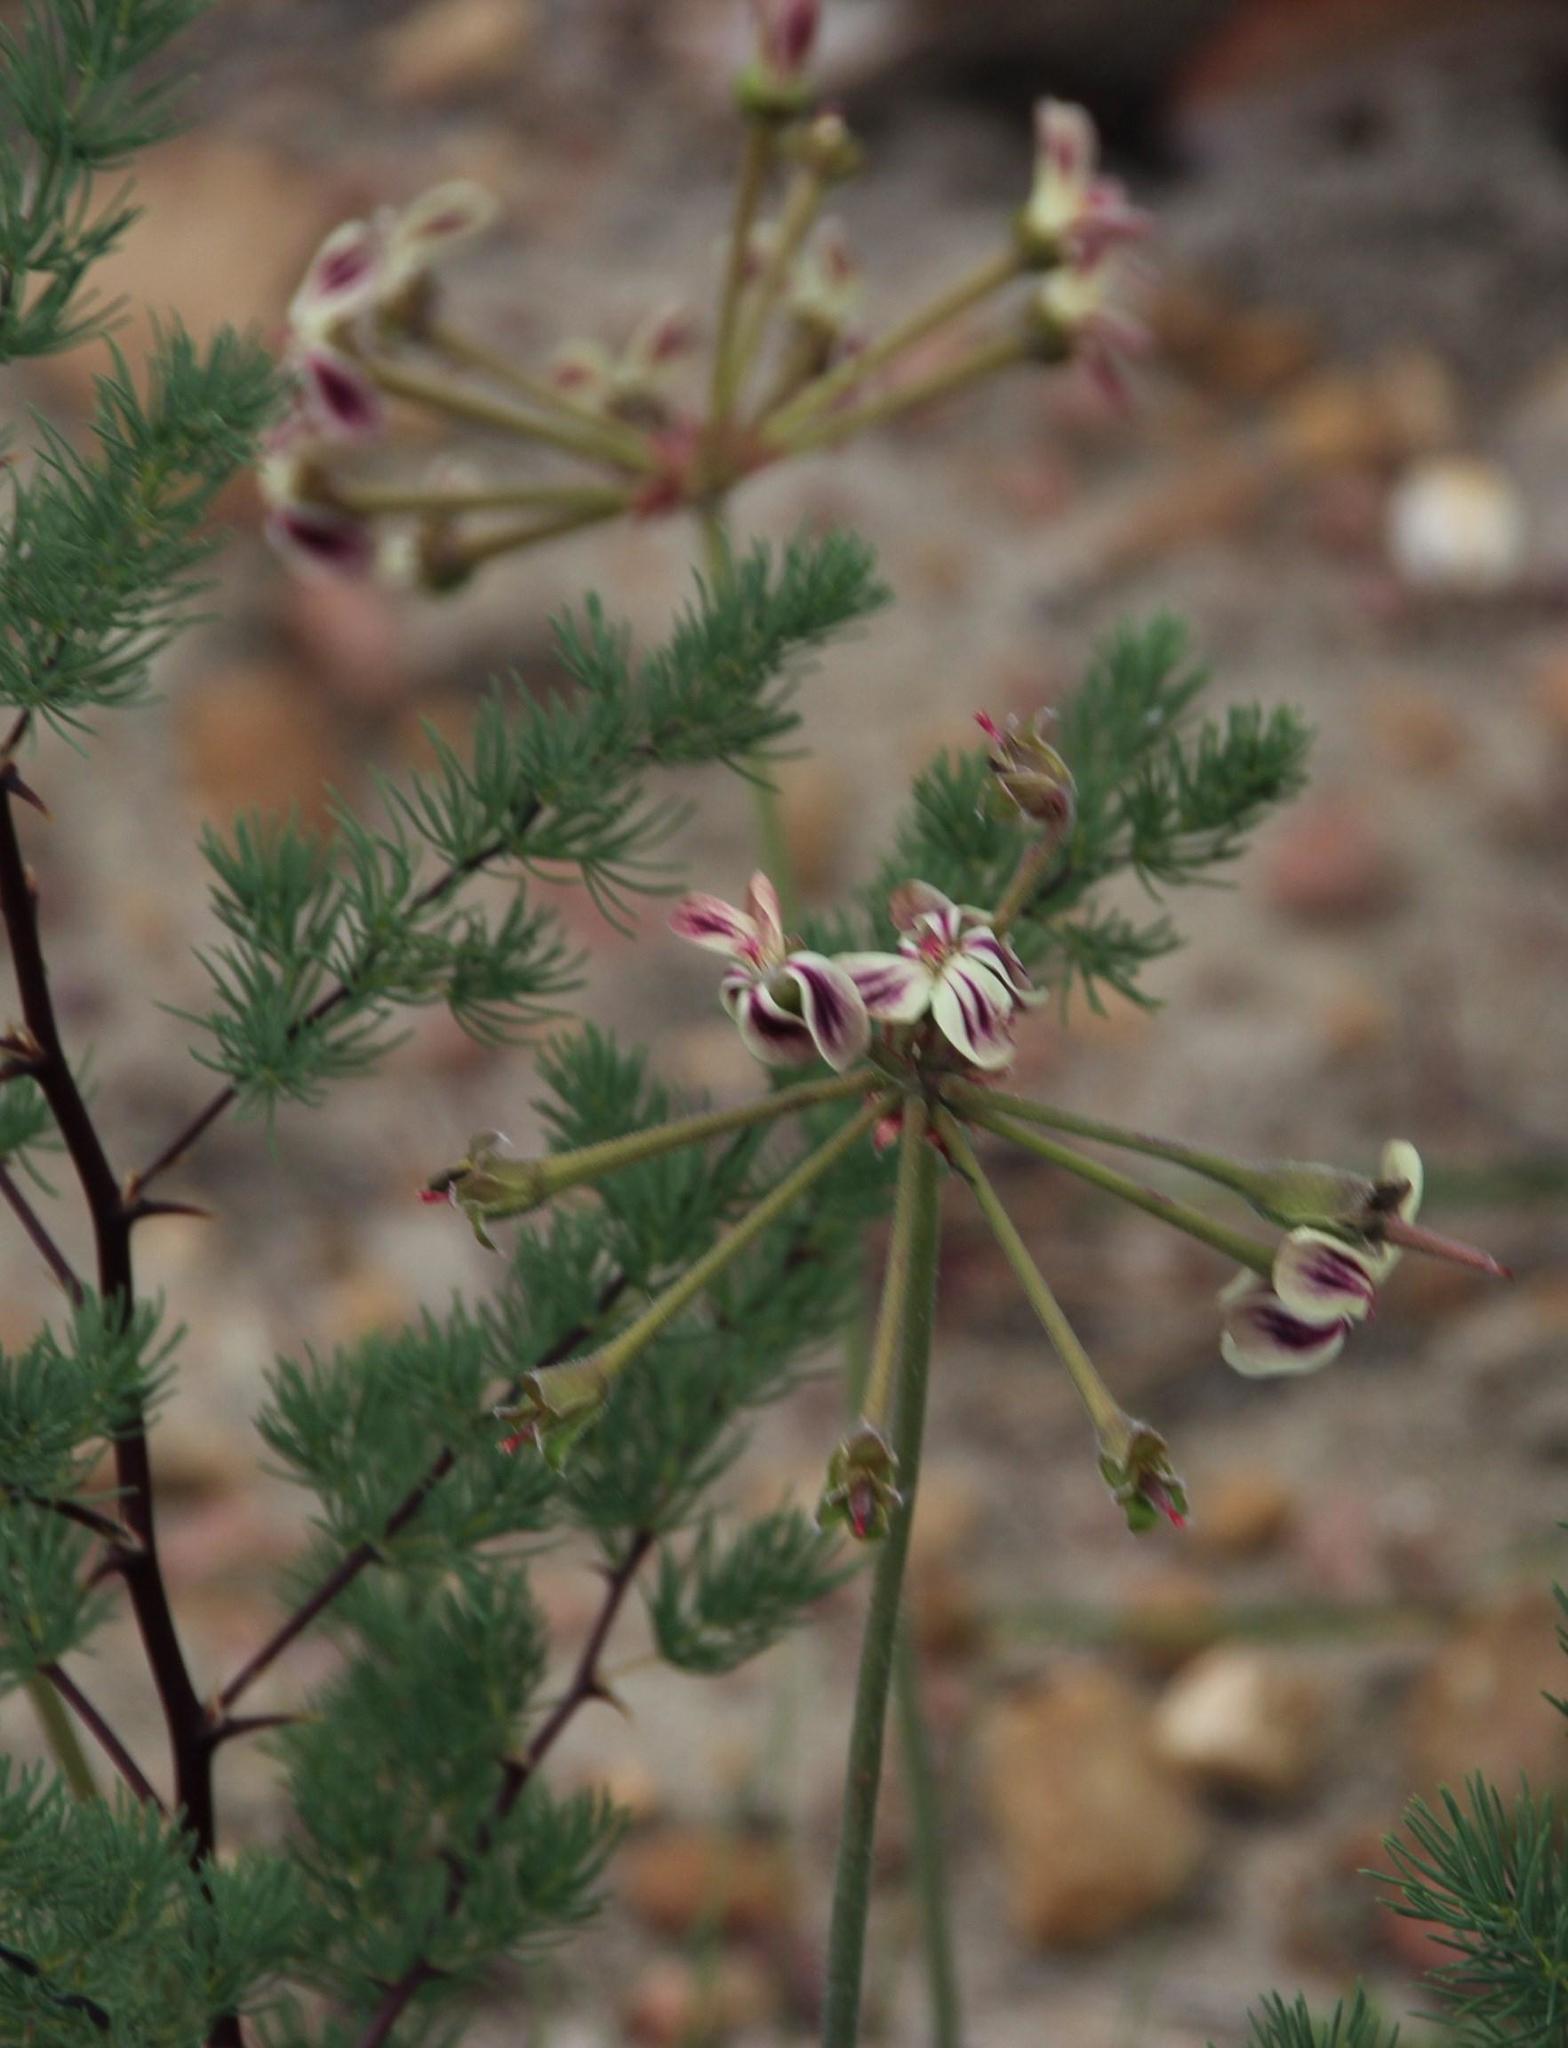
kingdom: Plantae
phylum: Tracheophyta
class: Magnoliopsida
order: Geraniales
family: Geraniaceae
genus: Pelargonium
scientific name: Pelargonium triste
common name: Night-scent pelargonium
